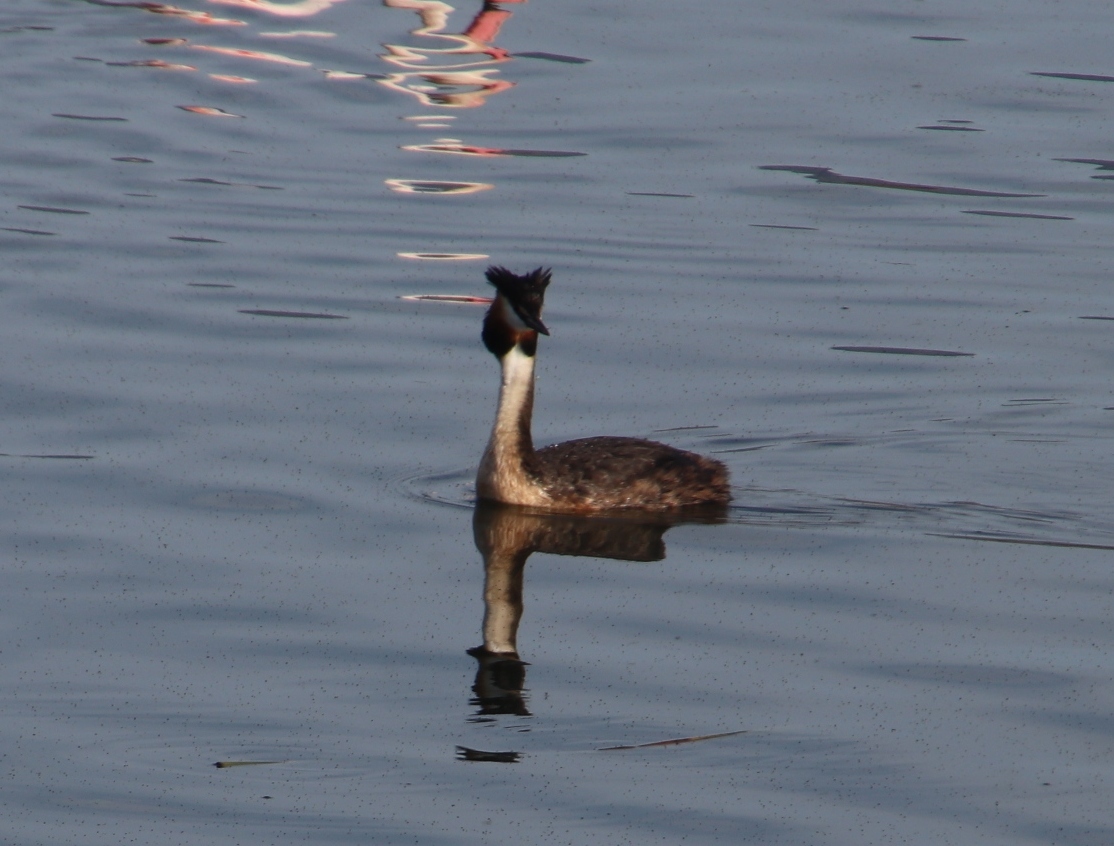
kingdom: Animalia
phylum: Chordata
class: Aves
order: Podicipediformes
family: Podicipedidae
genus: Podiceps
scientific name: Podiceps cristatus
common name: Great crested grebe
